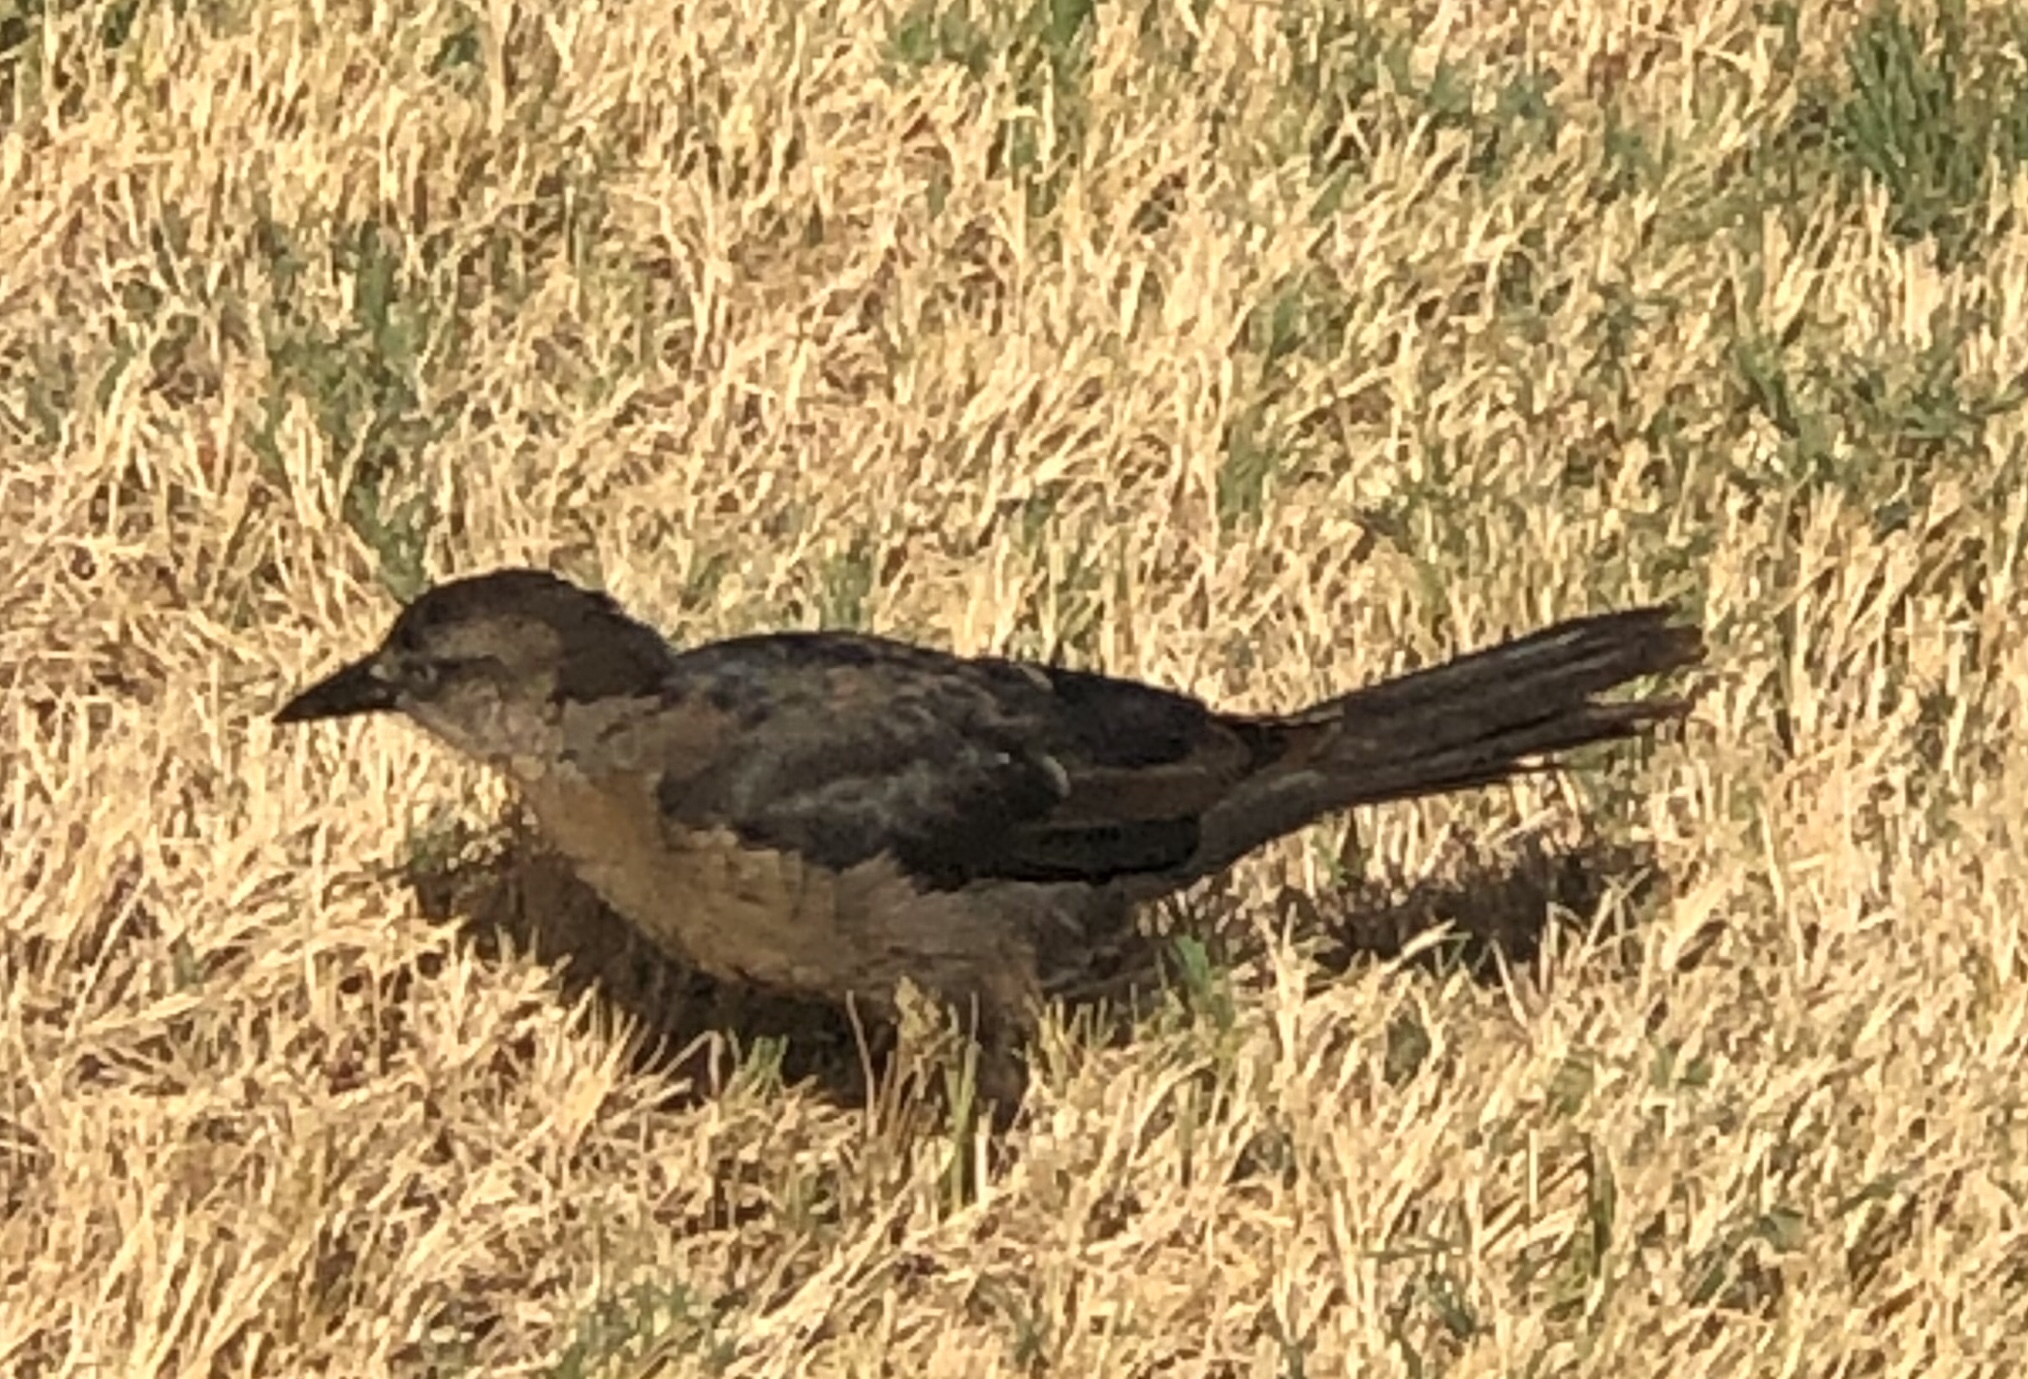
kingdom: Animalia
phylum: Chordata
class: Aves
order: Passeriformes
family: Icteridae
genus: Quiscalus
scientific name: Quiscalus mexicanus
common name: Great-tailed grackle
